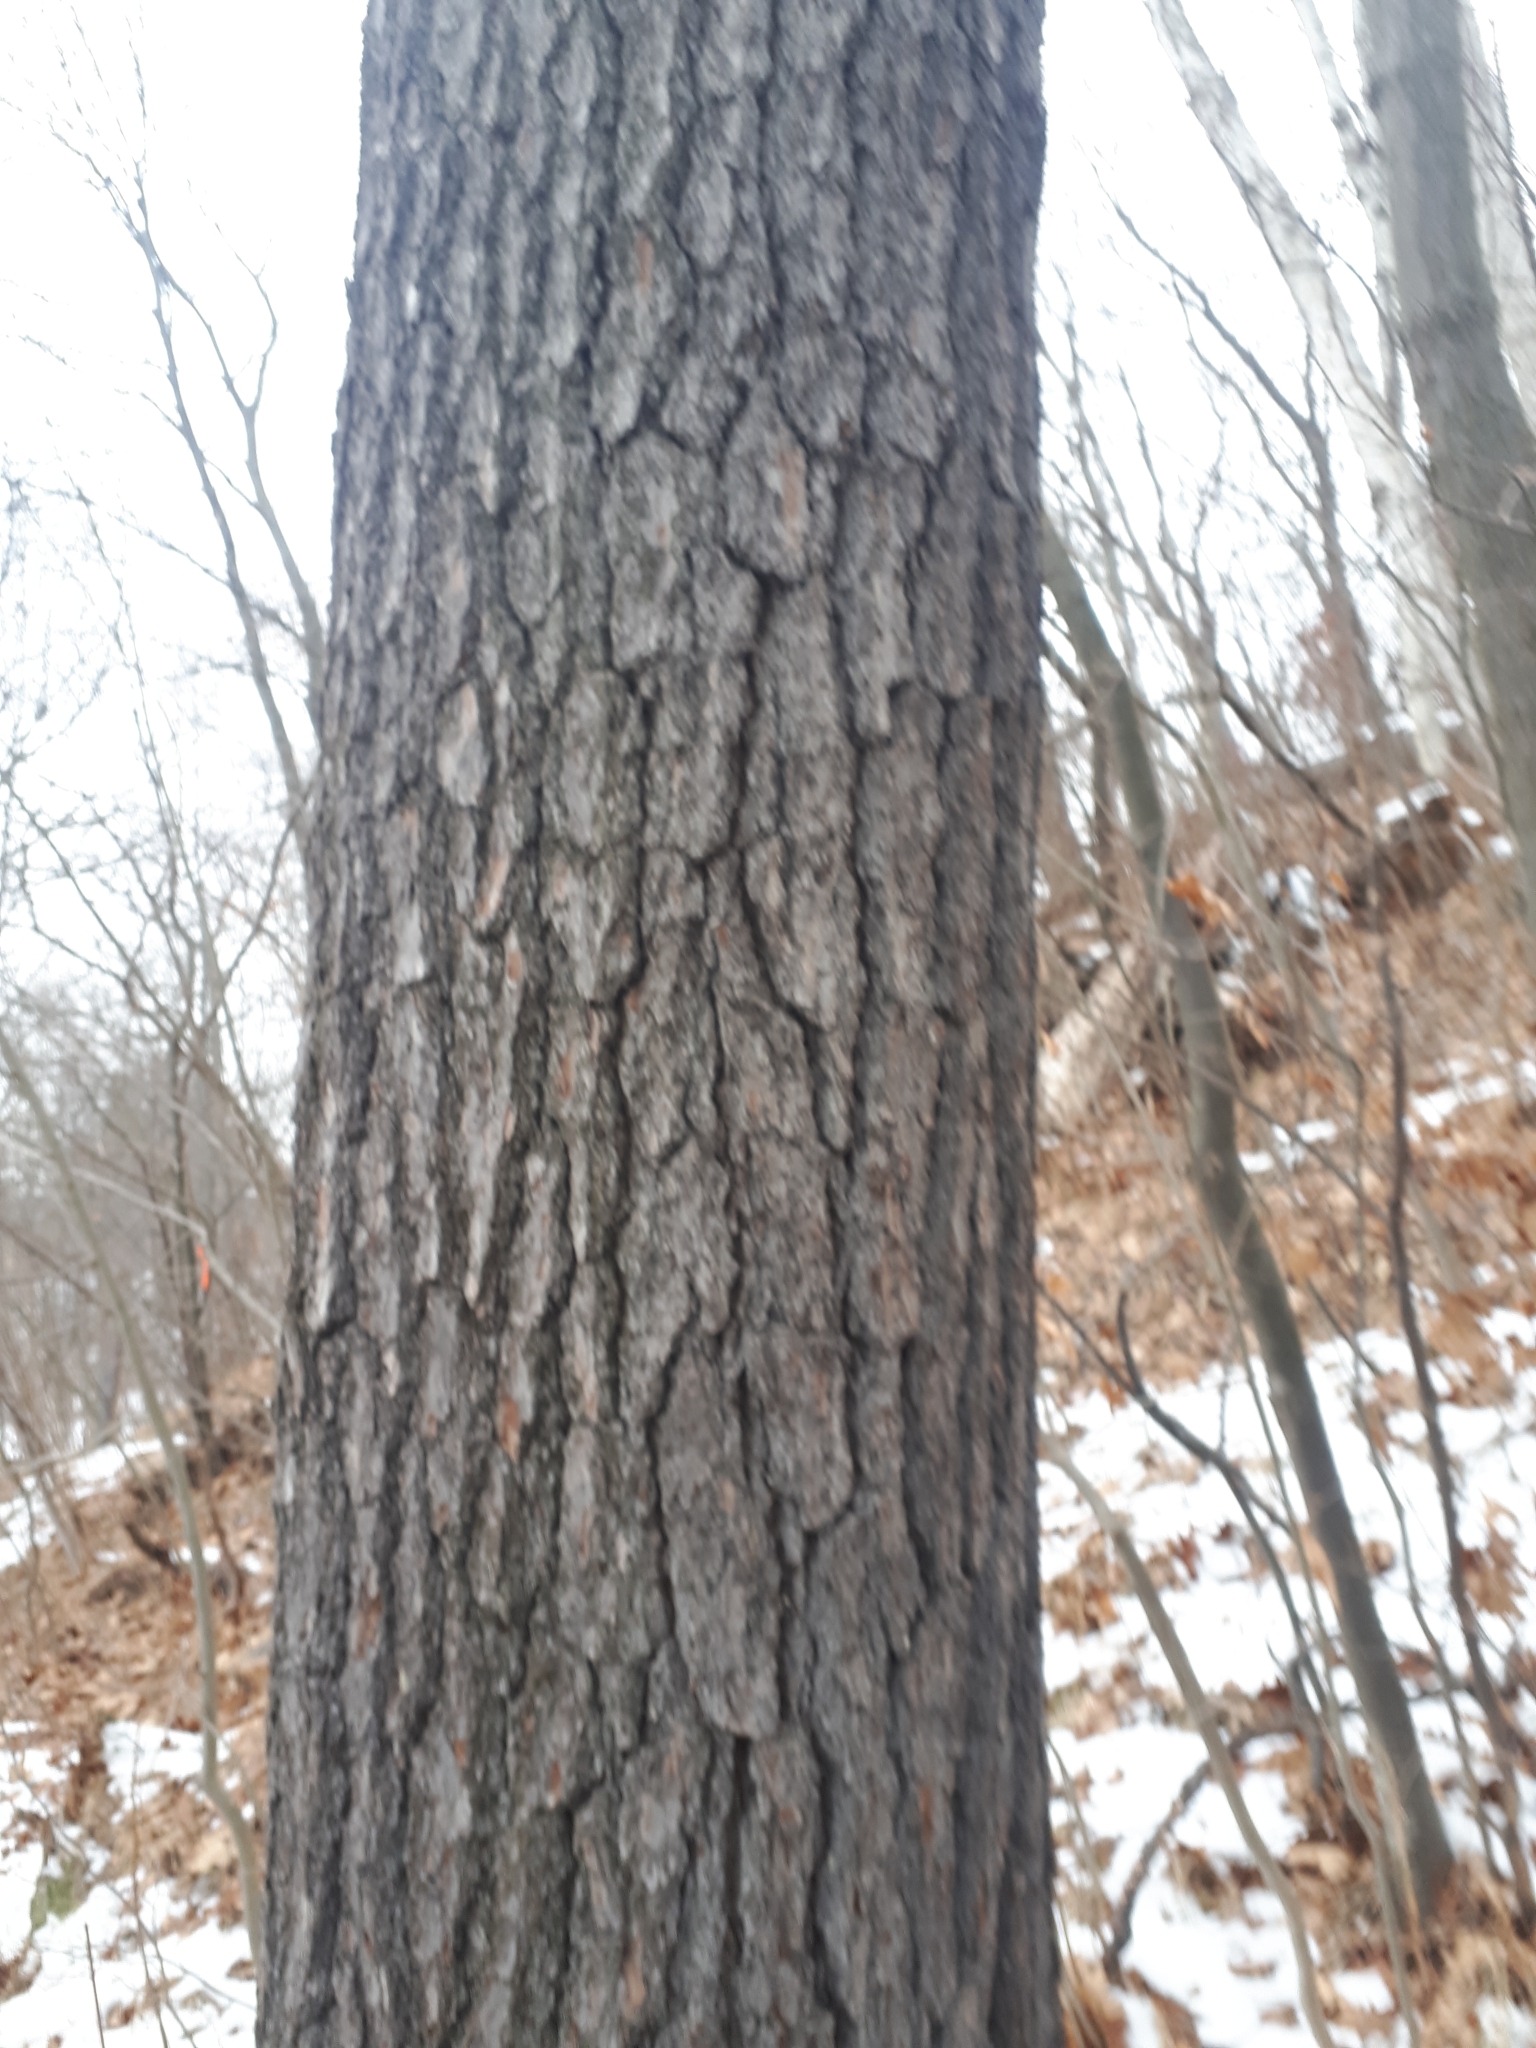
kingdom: Plantae
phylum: Tracheophyta
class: Pinopsida
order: Pinales
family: Pinaceae
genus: Pinus
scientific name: Pinus strobus
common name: Weymouth pine
